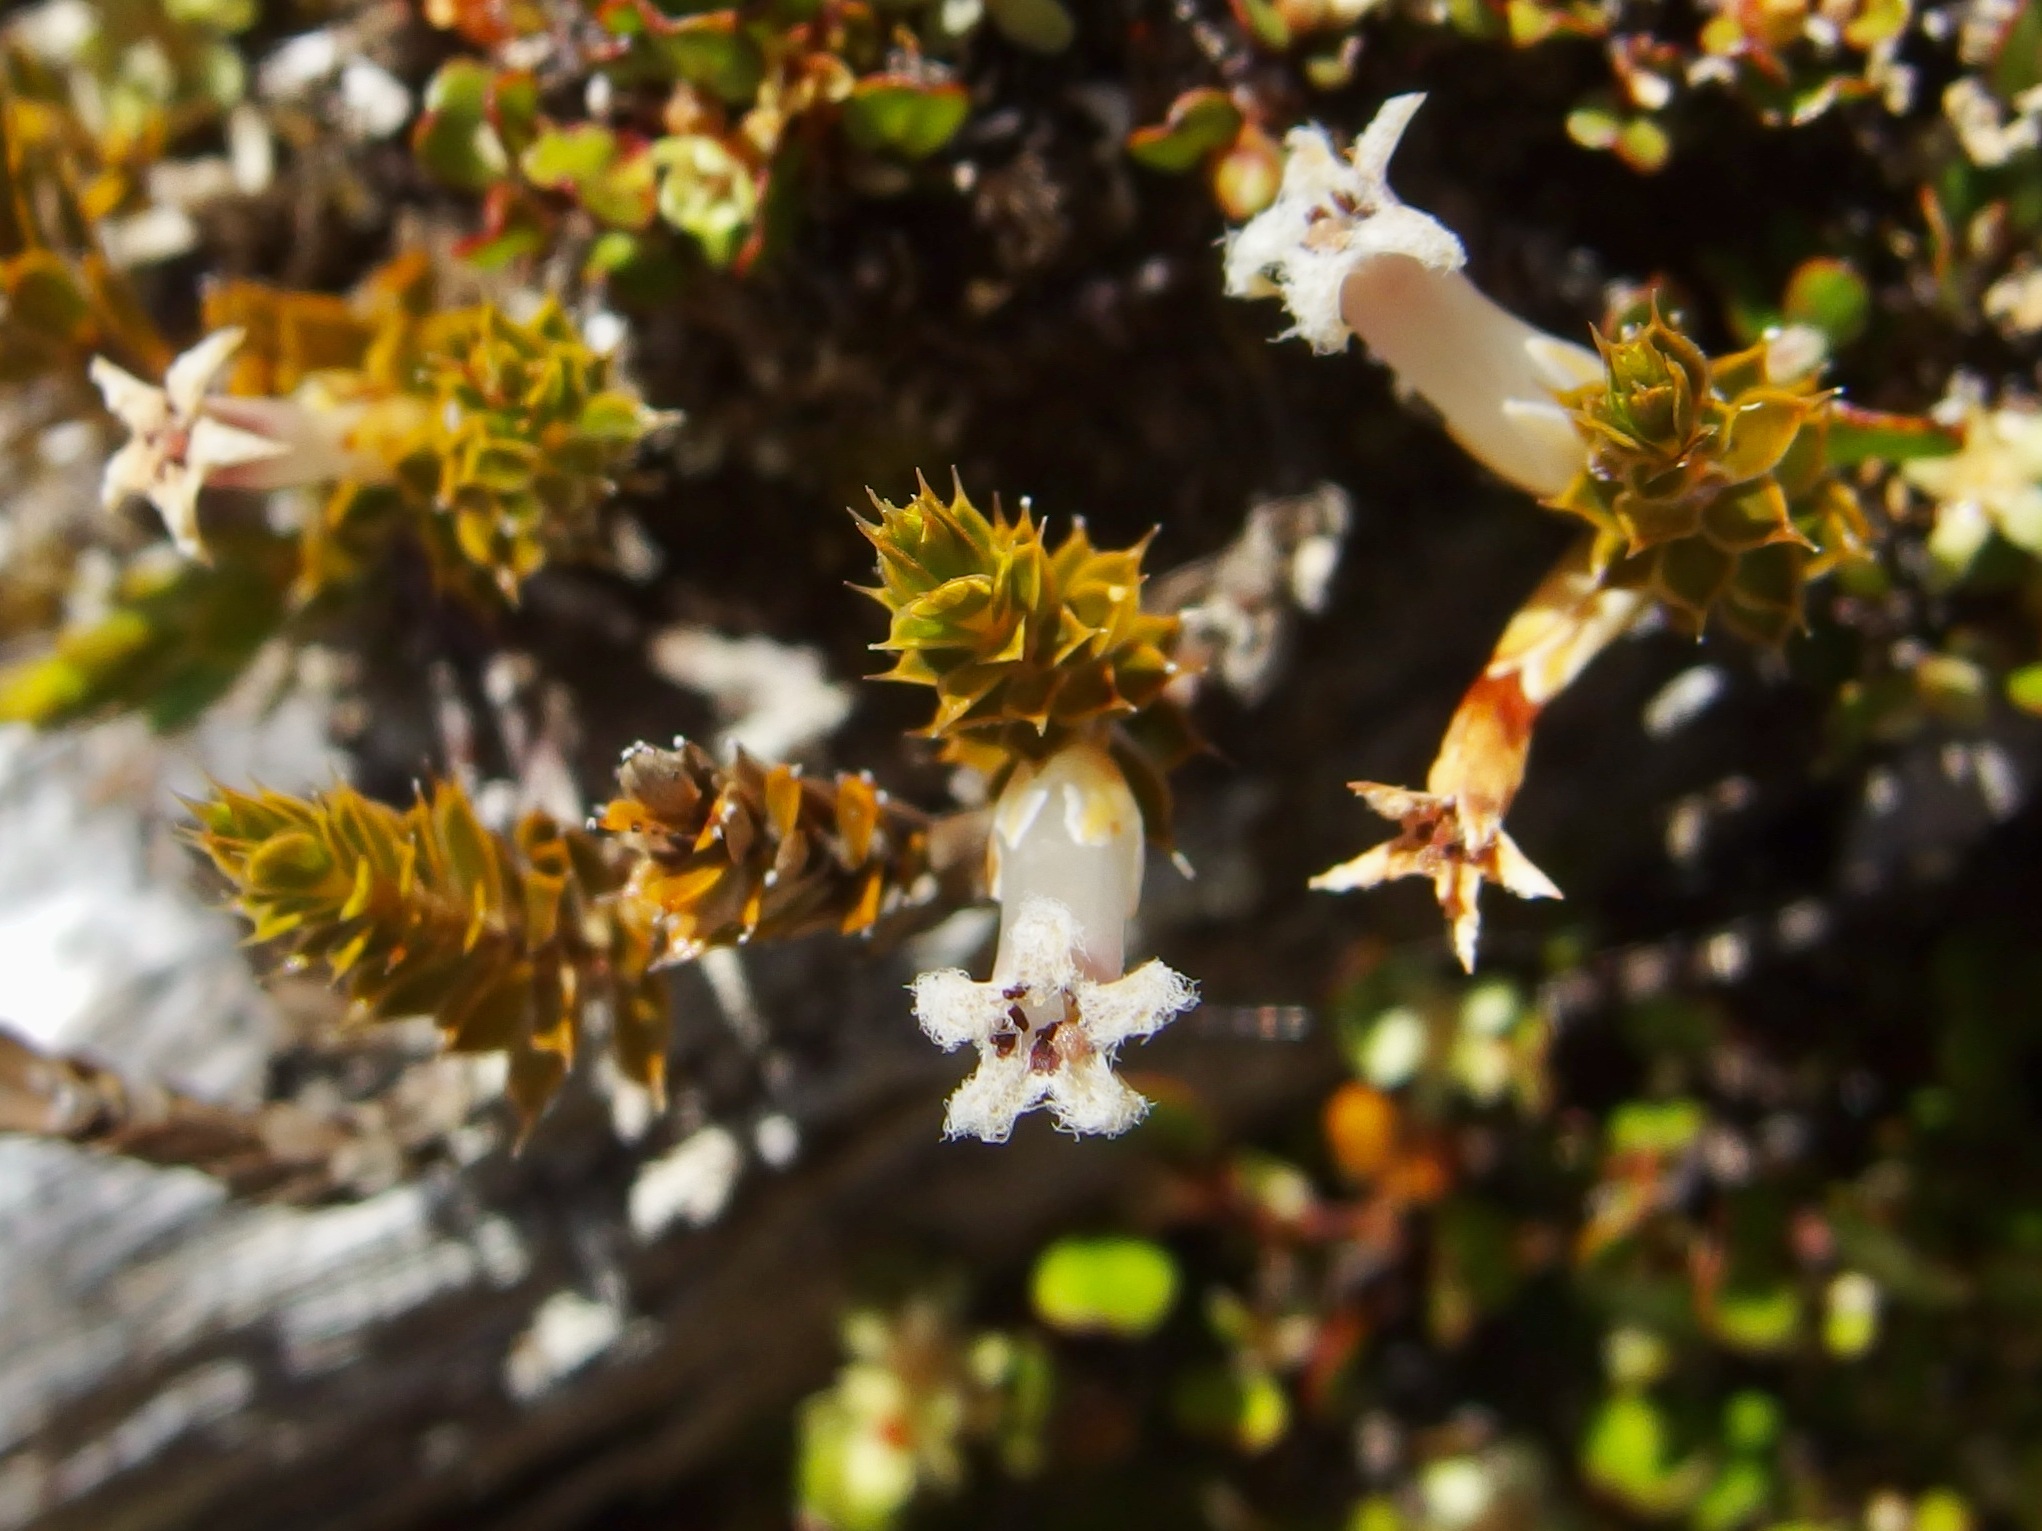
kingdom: Plantae
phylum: Tracheophyta
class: Magnoliopsida
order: Ericales
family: Ericaceae
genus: Styphelia
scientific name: Styphelia nesophila
